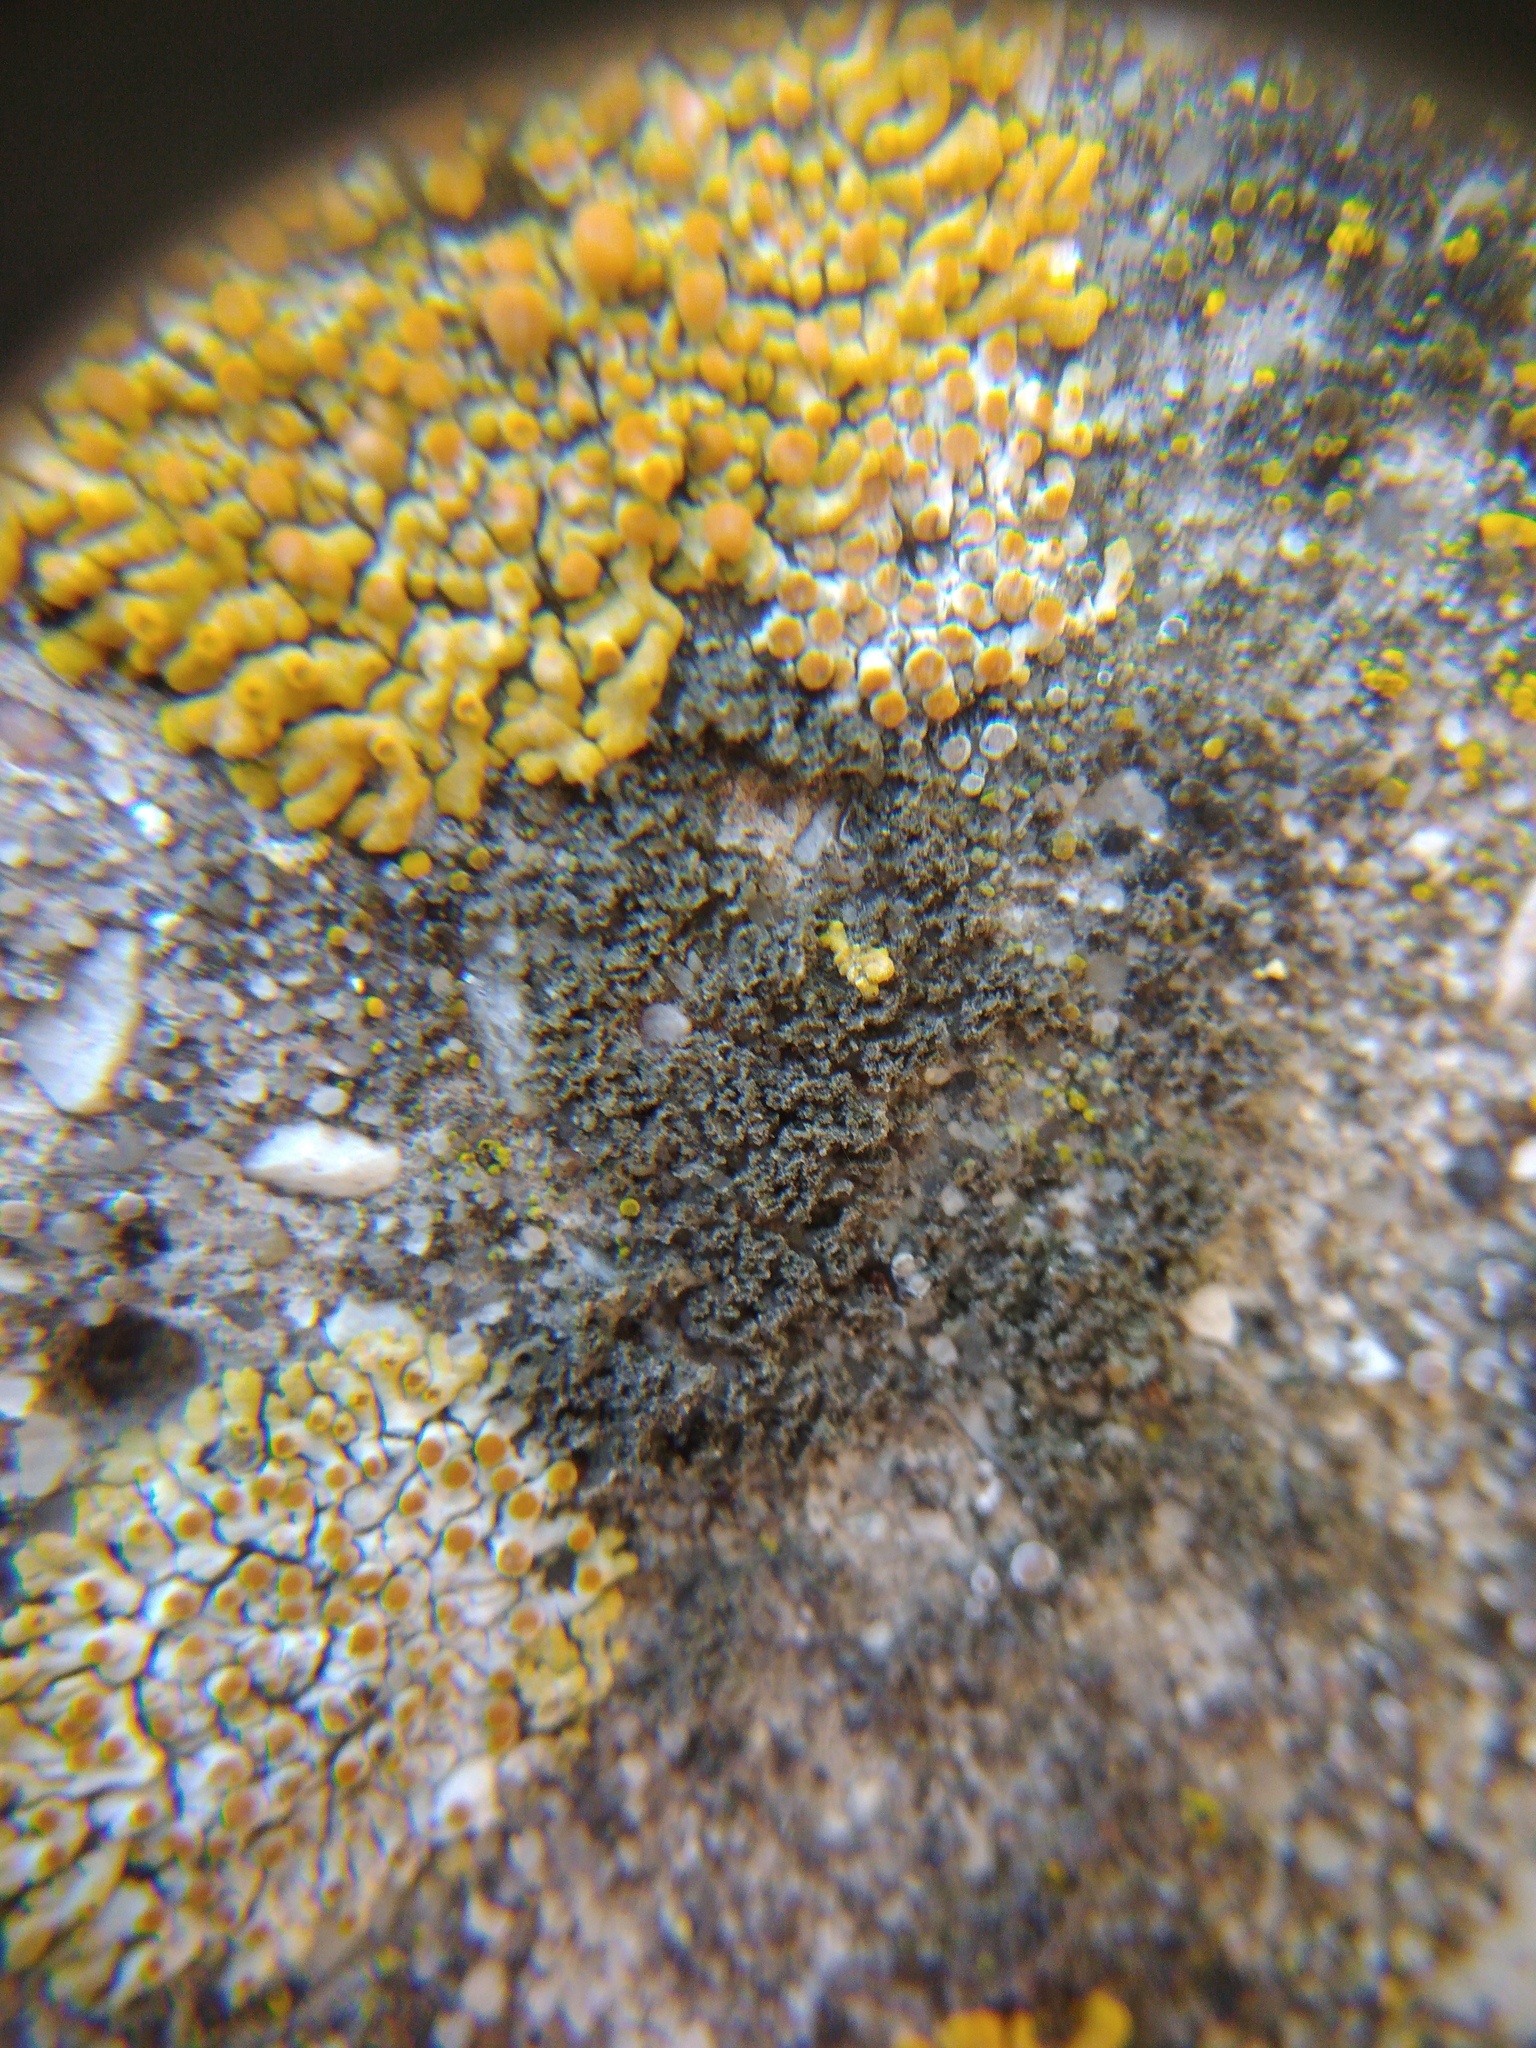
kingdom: Fungi
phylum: Ascomycota
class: Lecanoromycetes
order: Caliciales
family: Physciaceae
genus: Physciella
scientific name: Physciella nigricans
